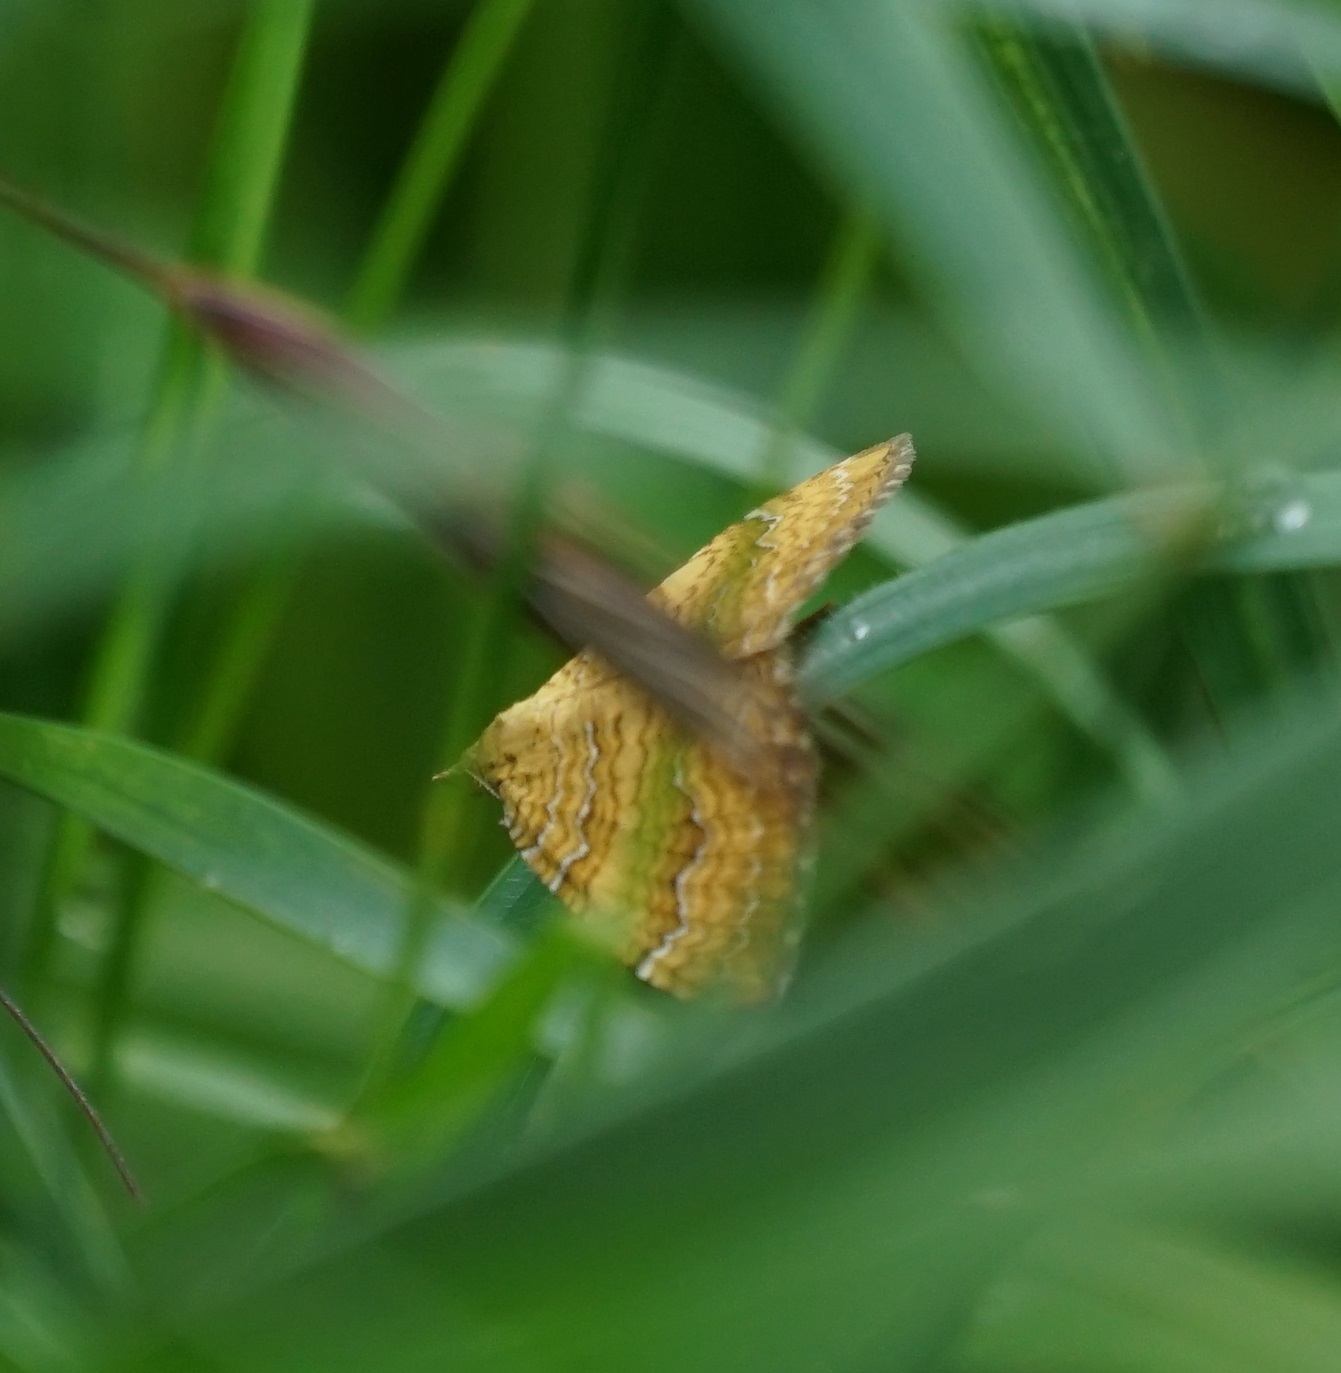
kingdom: Animalia
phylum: Arthropoda
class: Insecta
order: Lepidoptera
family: Geometridae
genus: Camptogramma
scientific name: Camptogramma bilineata
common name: Yellow shell
